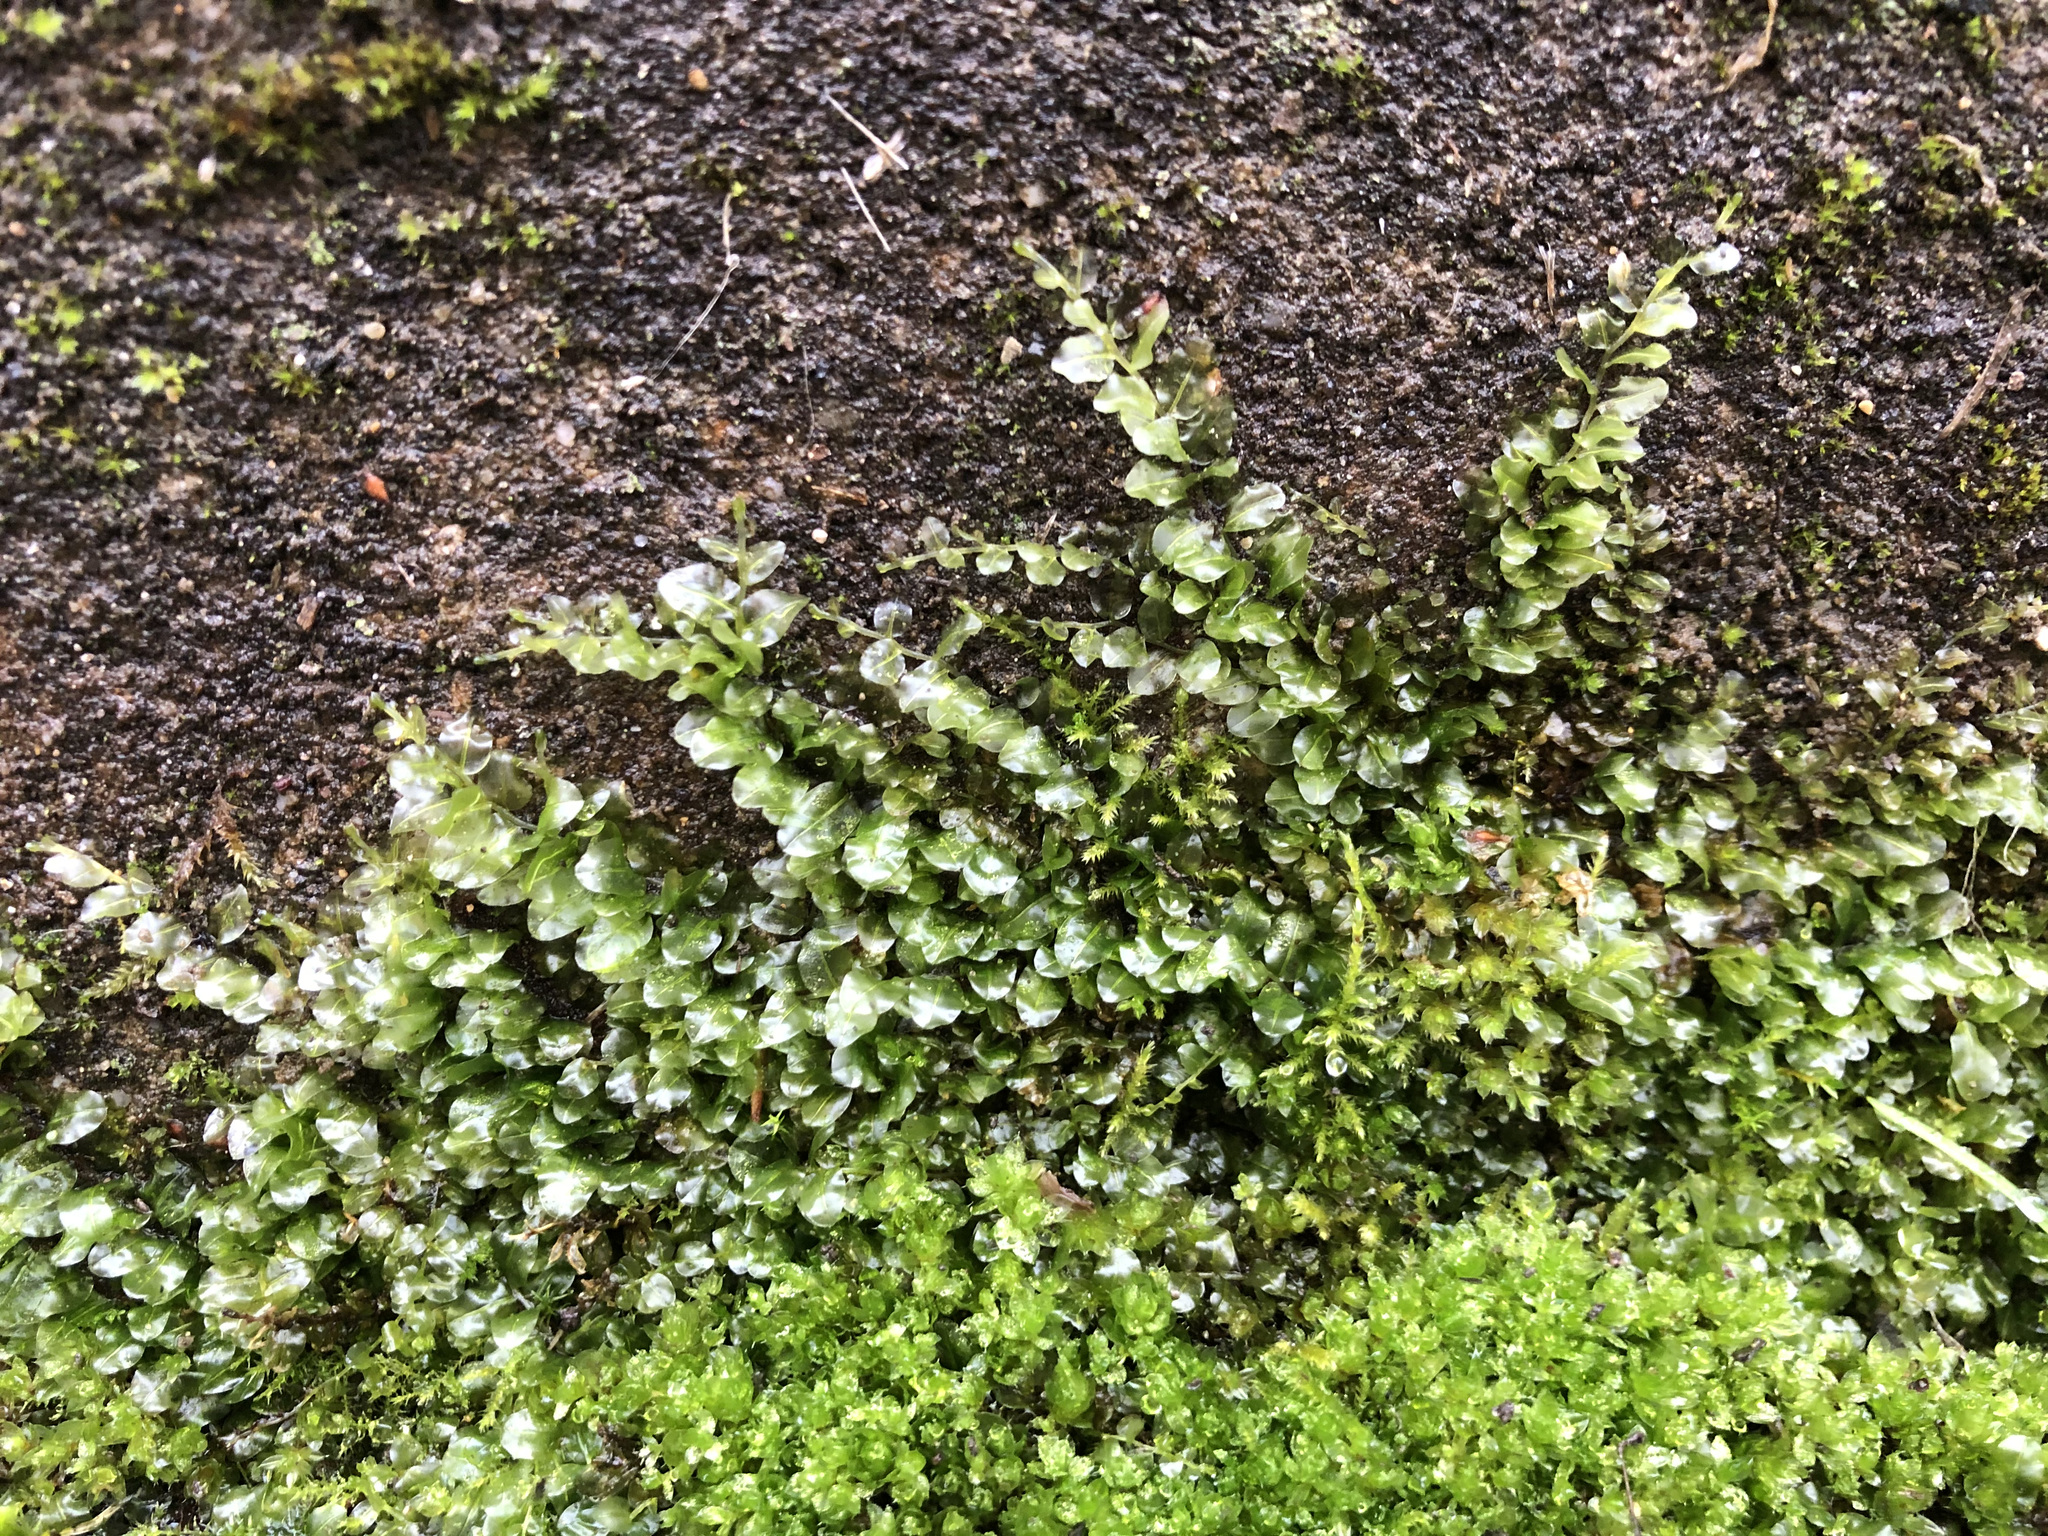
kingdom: Plantae
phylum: Bryophyta
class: Bryopsida
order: Bryales
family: Mniaceae
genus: Plagiomnium
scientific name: Plagiomnium rostratum
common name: Long-beaked leafy moss
